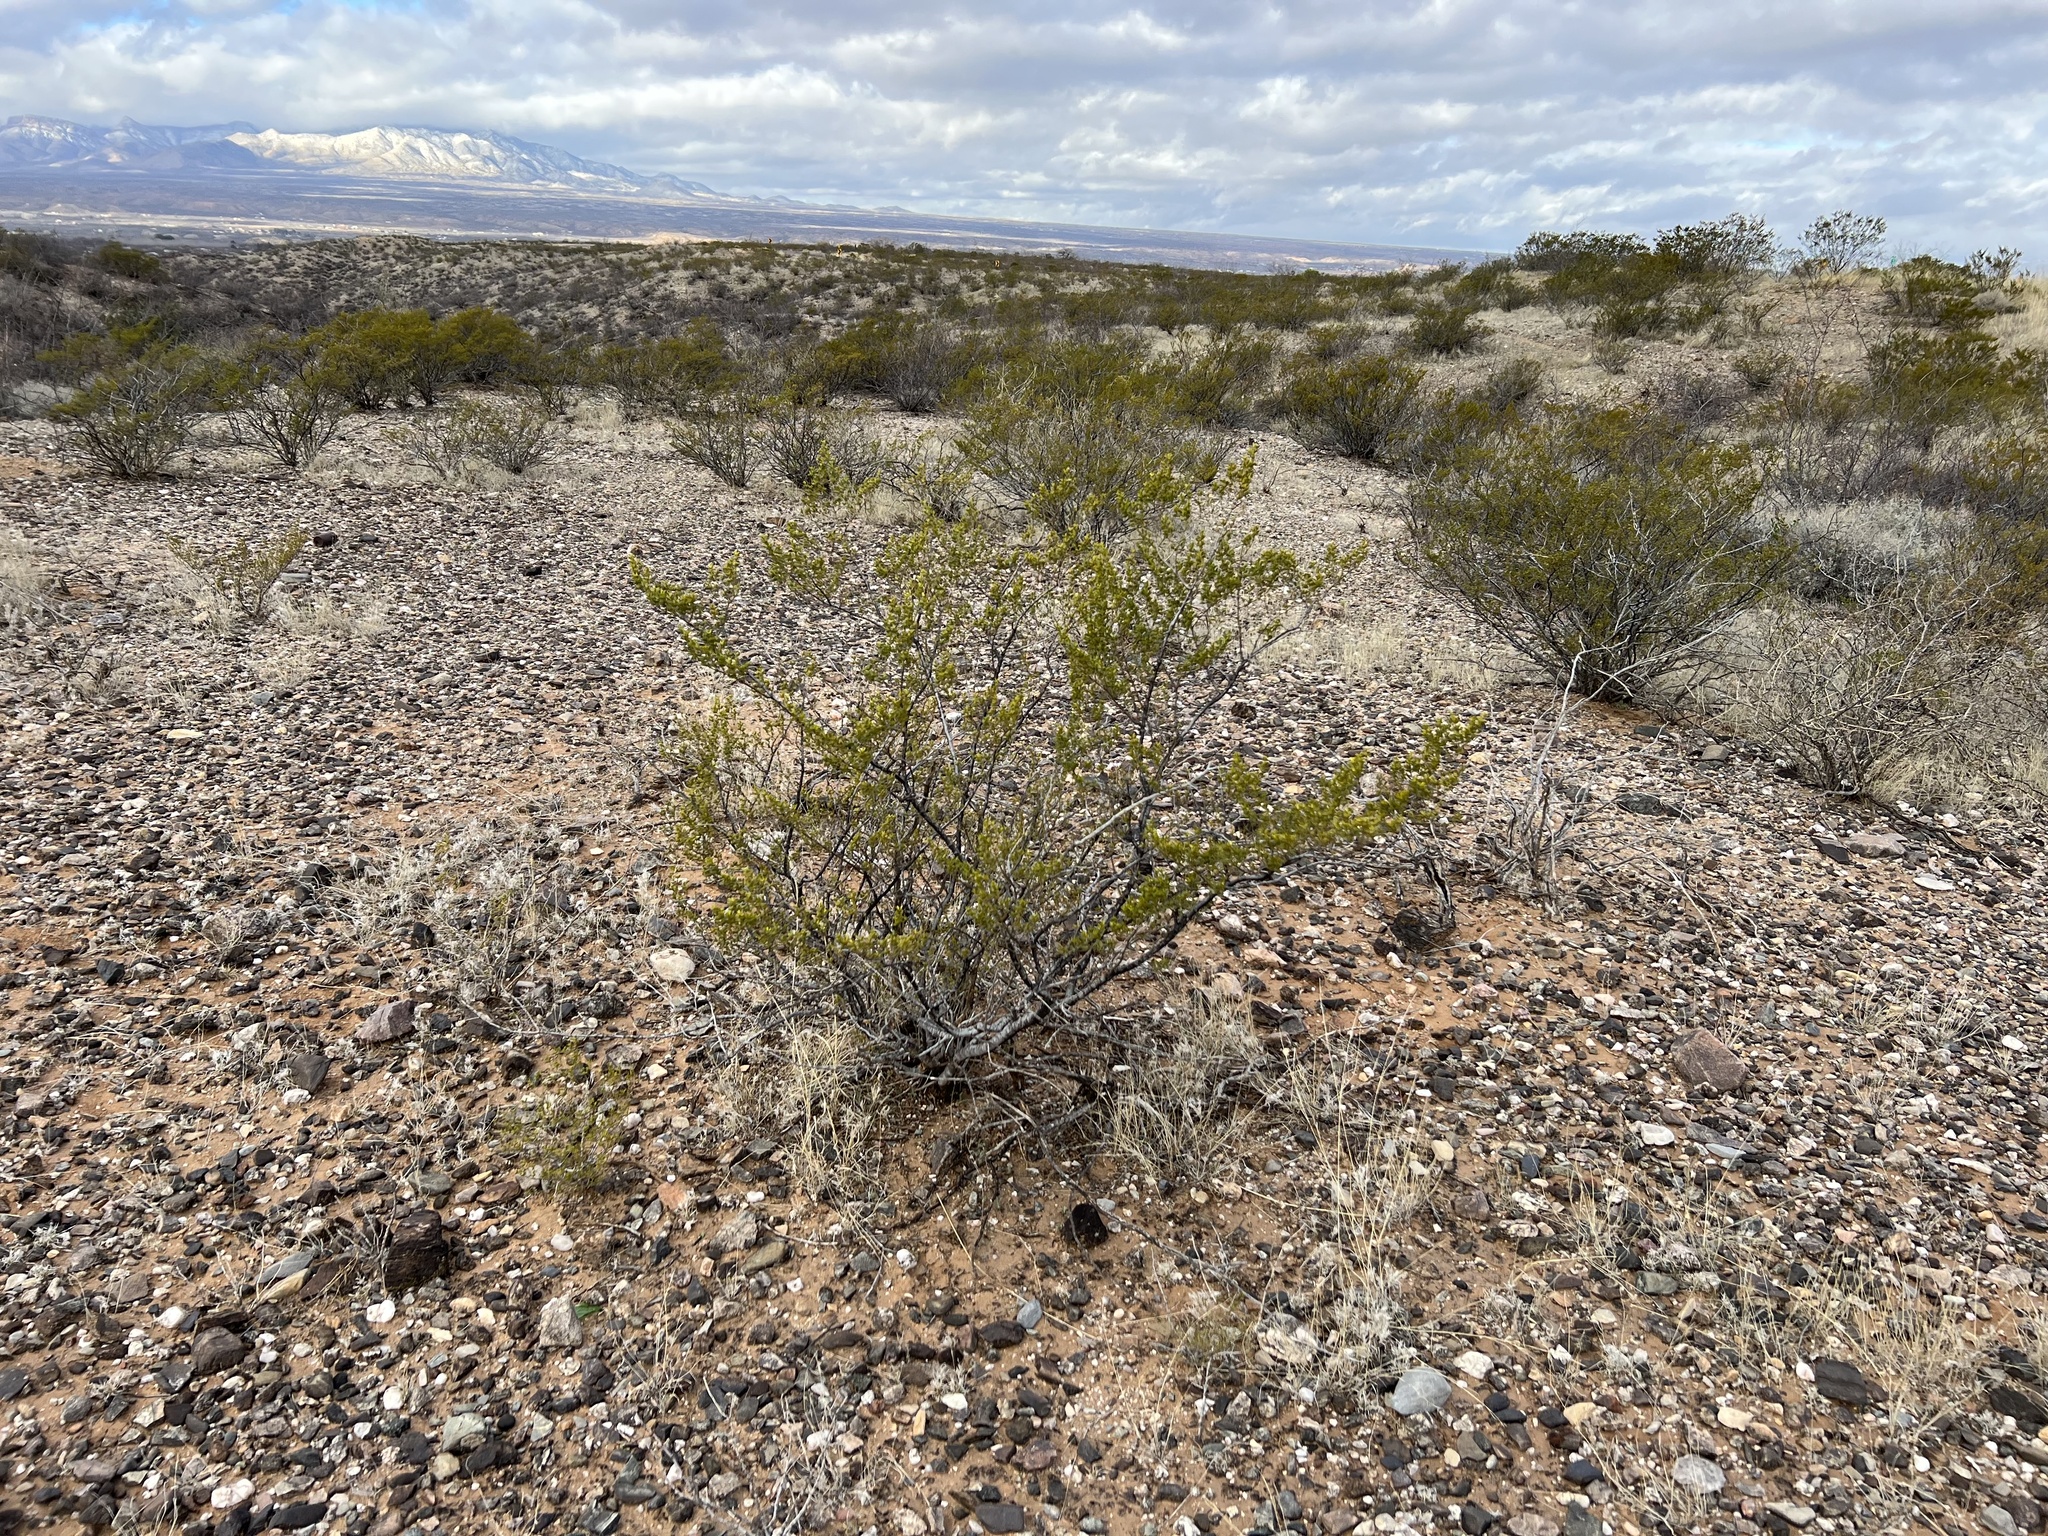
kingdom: Plantae
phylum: Tracheophyta
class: Magnoliopsida
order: Zygophyllales
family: Zygophyllaceae
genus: Larrea
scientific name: Larrea tridentata
